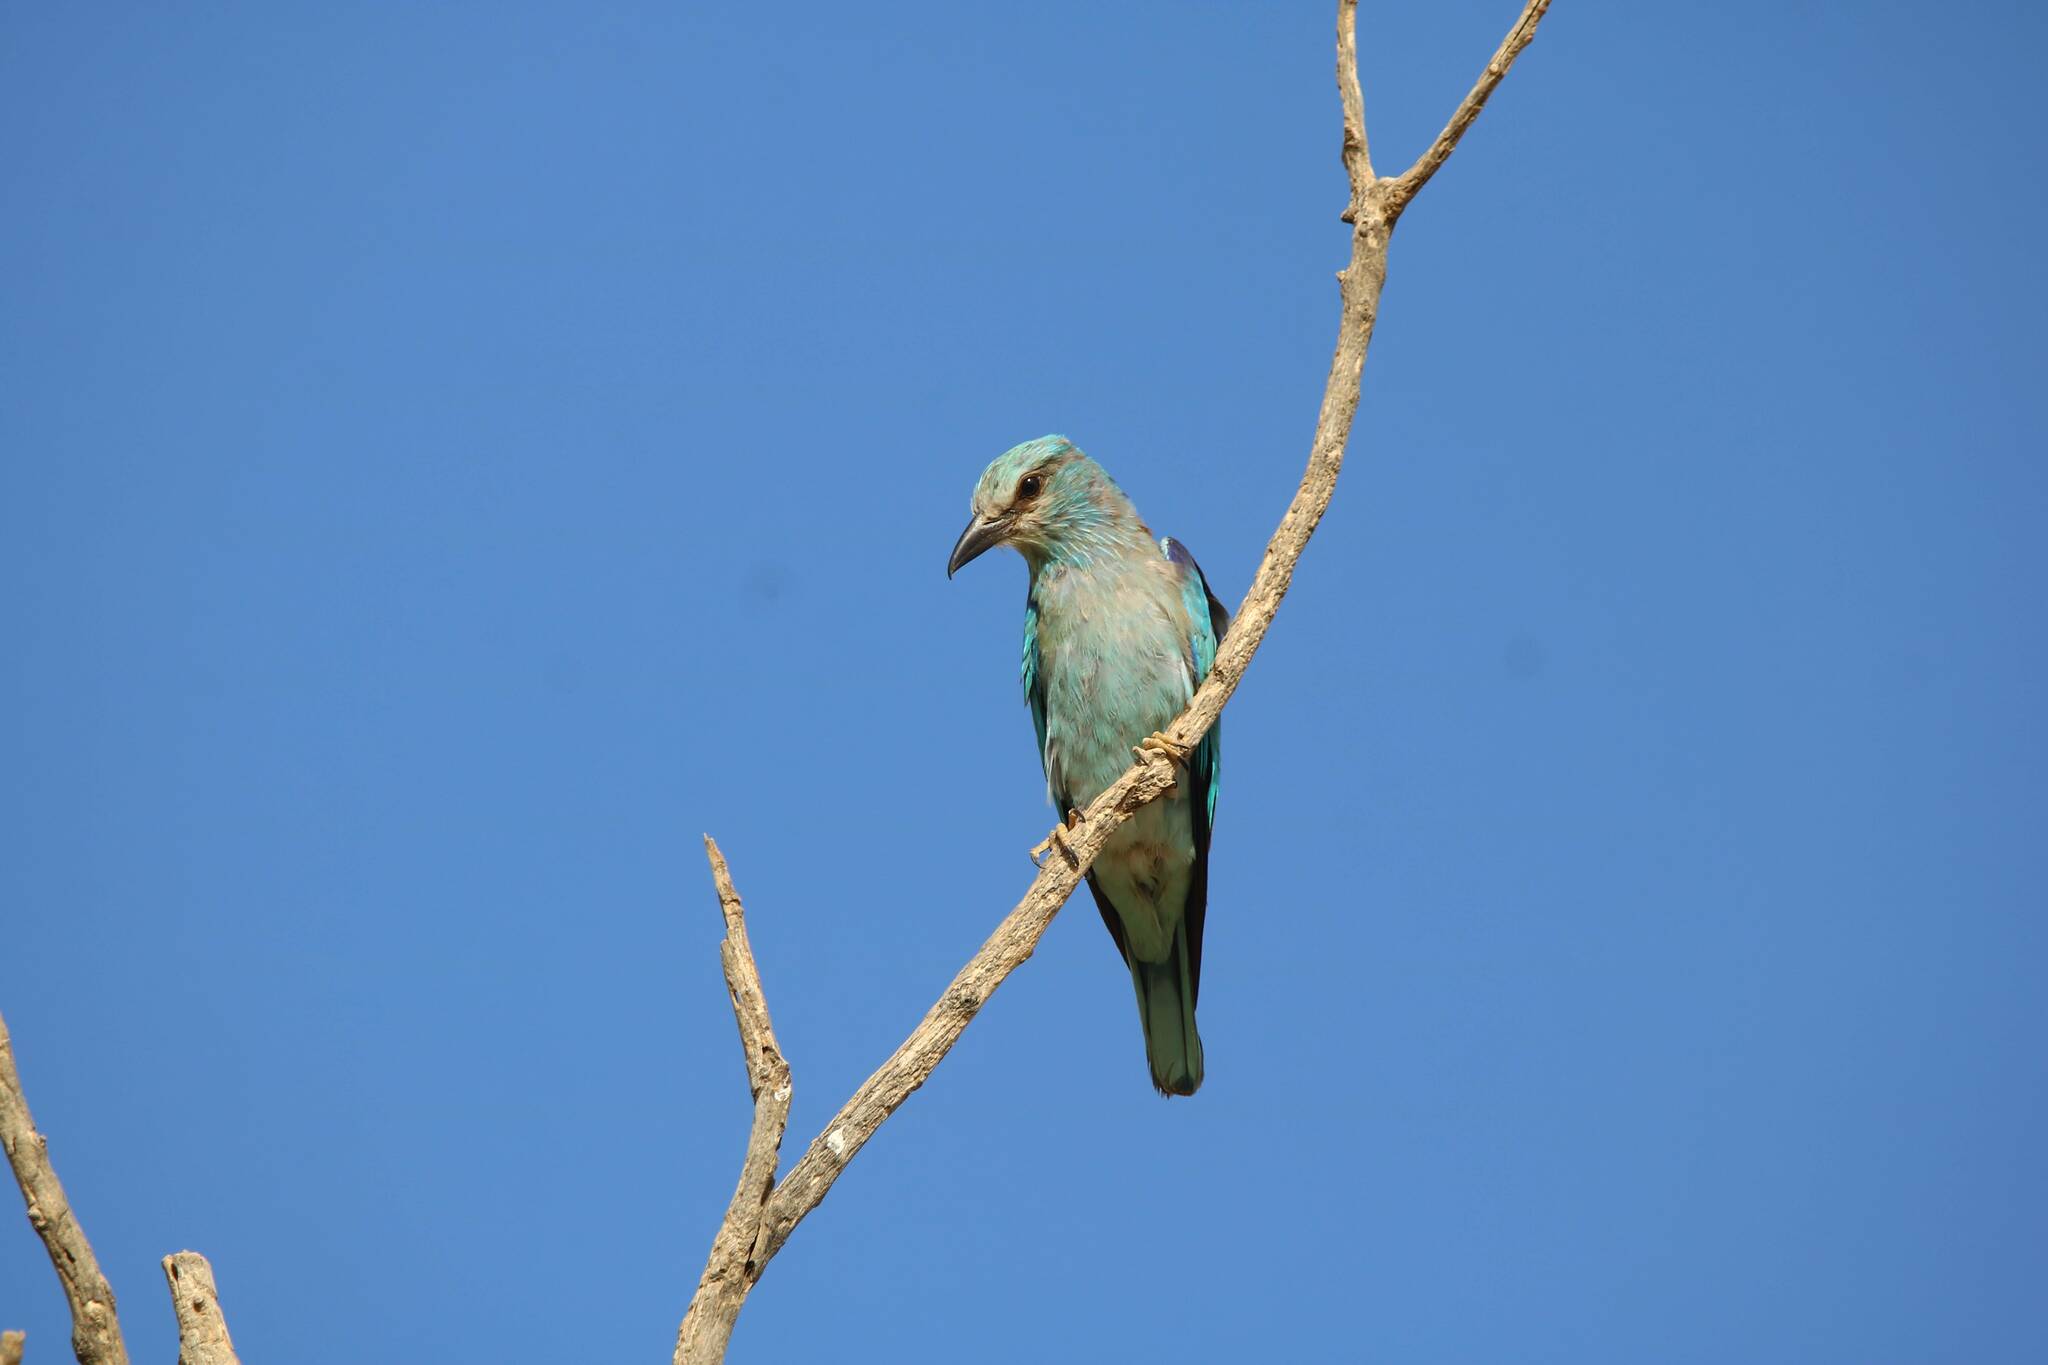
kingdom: Animalia
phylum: Chordata
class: Aves
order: Coraciiformes
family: Coraciidae
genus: Coracias
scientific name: Coracias garrulus
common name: European roller
